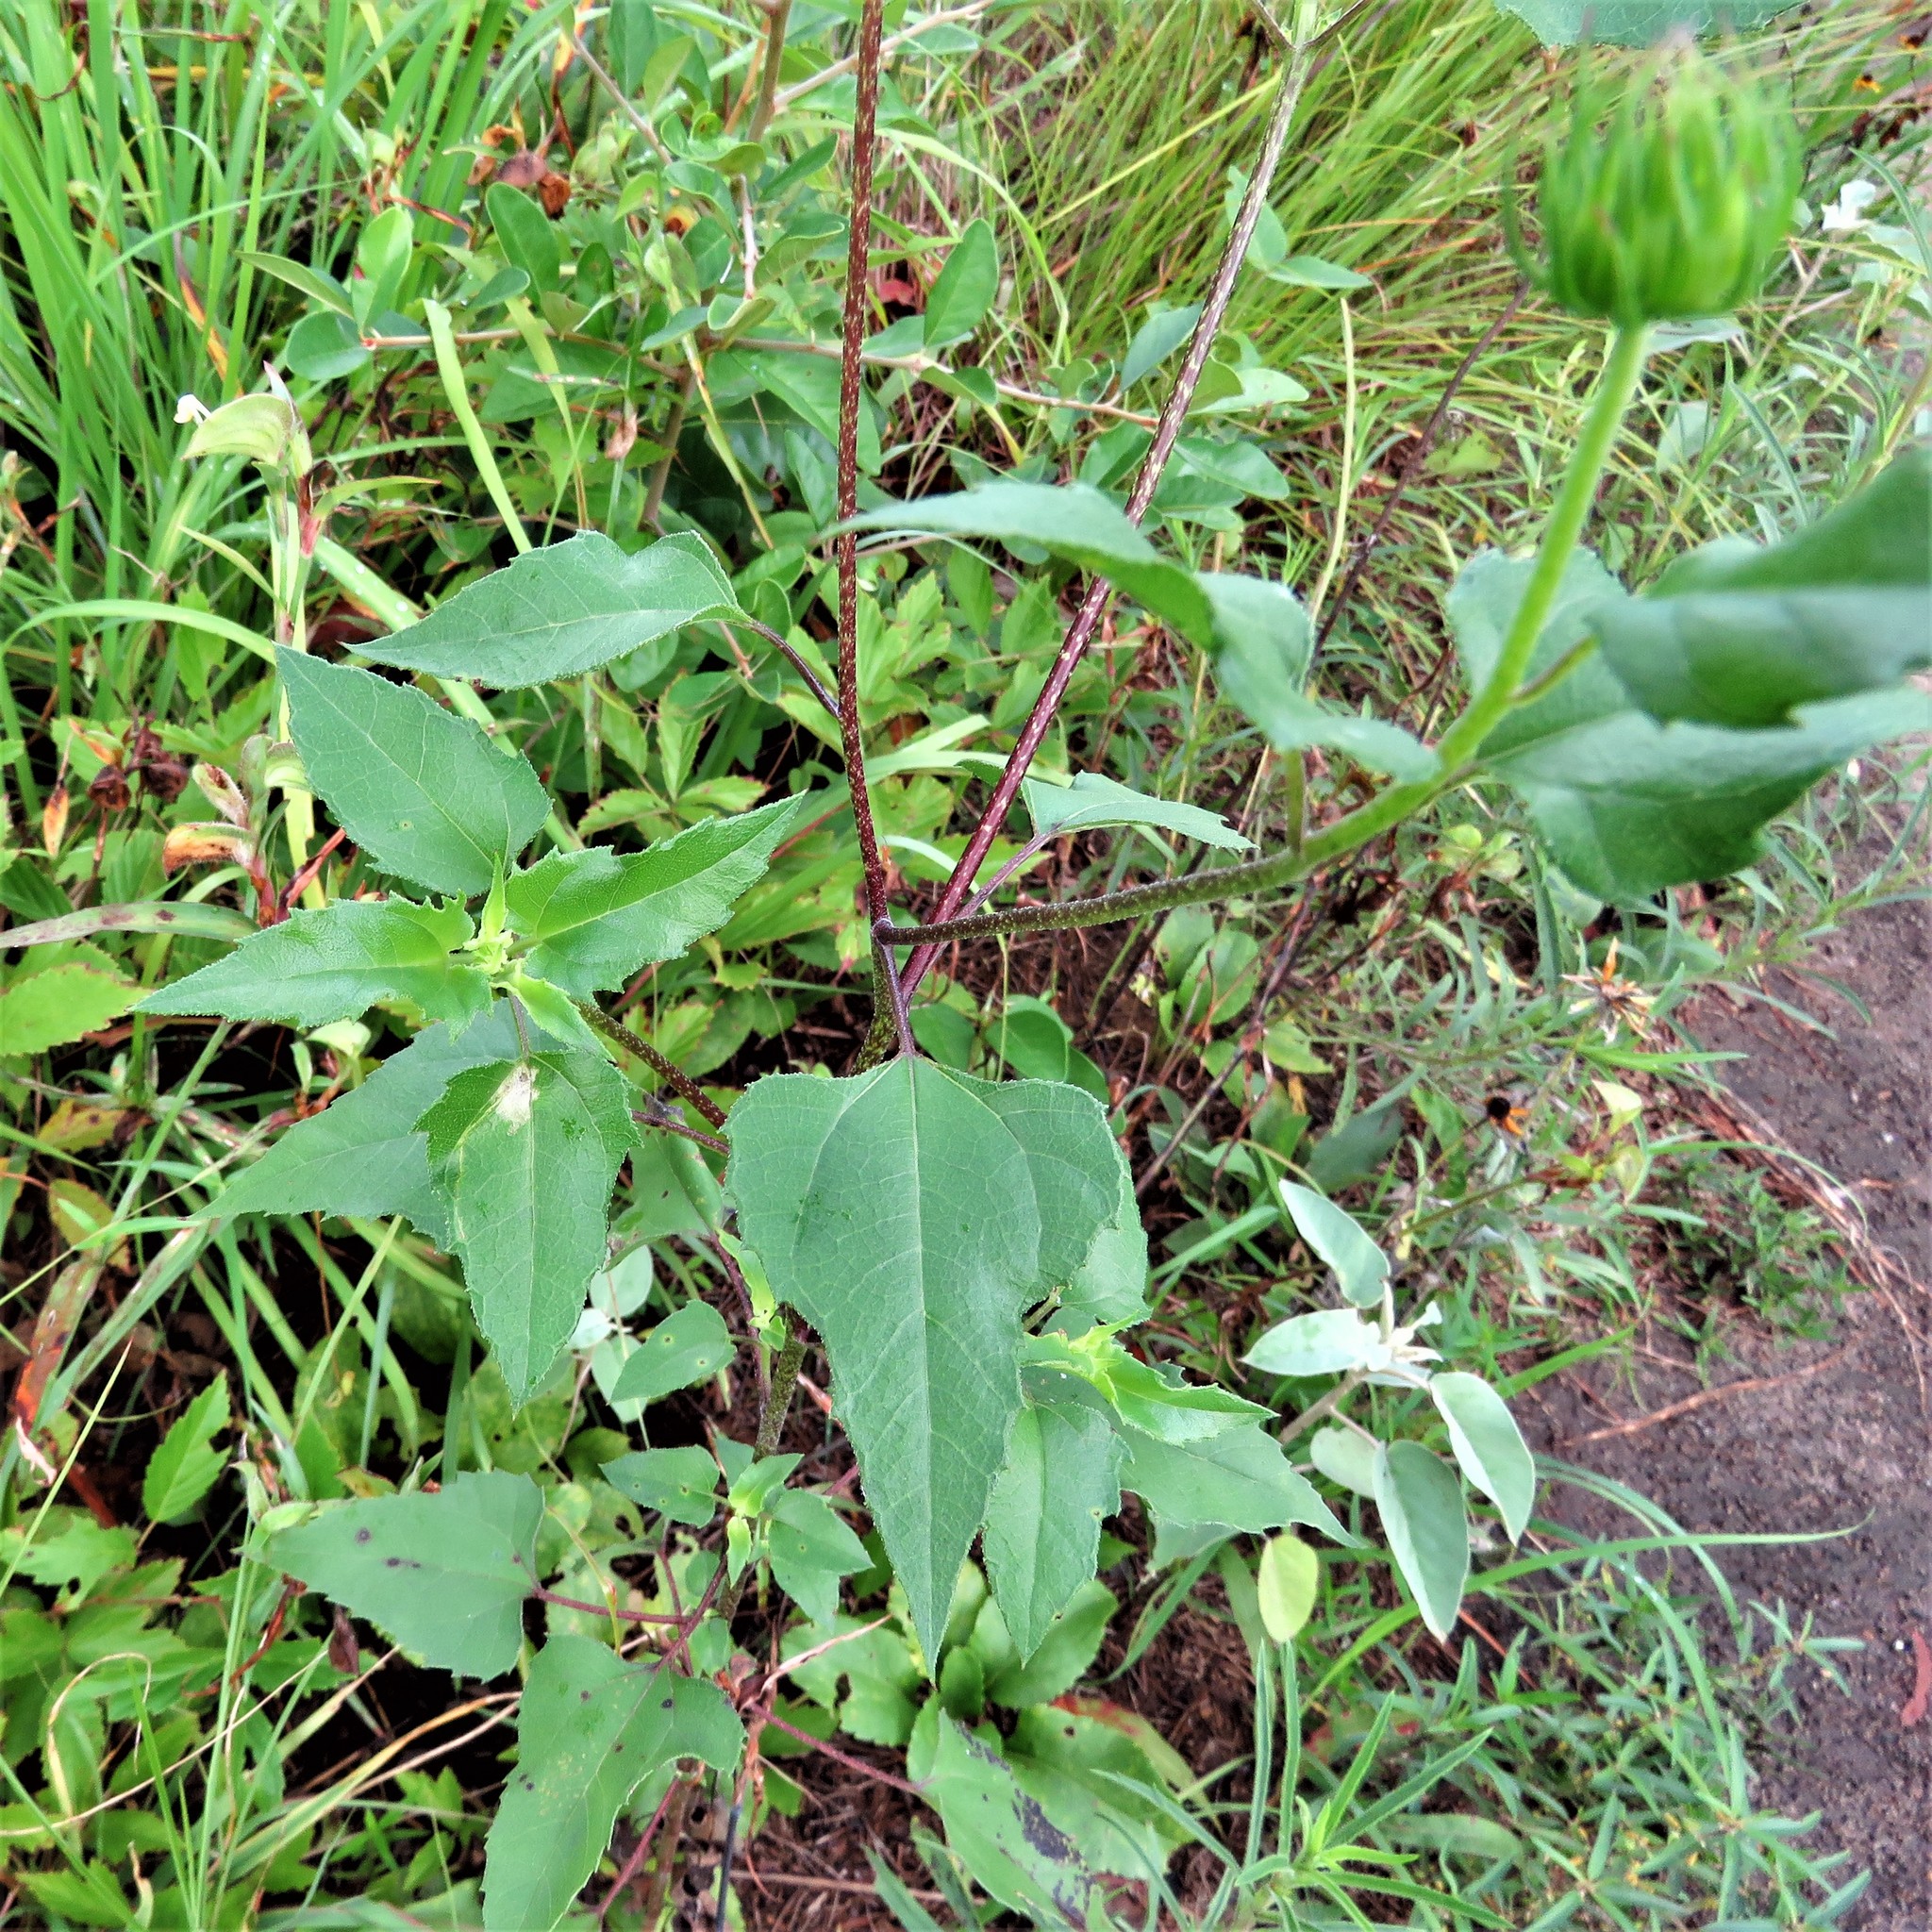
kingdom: Plantae
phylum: Tracheophyta
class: Magnoliopsida
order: Asterales
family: Asteraceae
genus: Helianthus
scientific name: Helianthus debilis
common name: Weak sunflower
